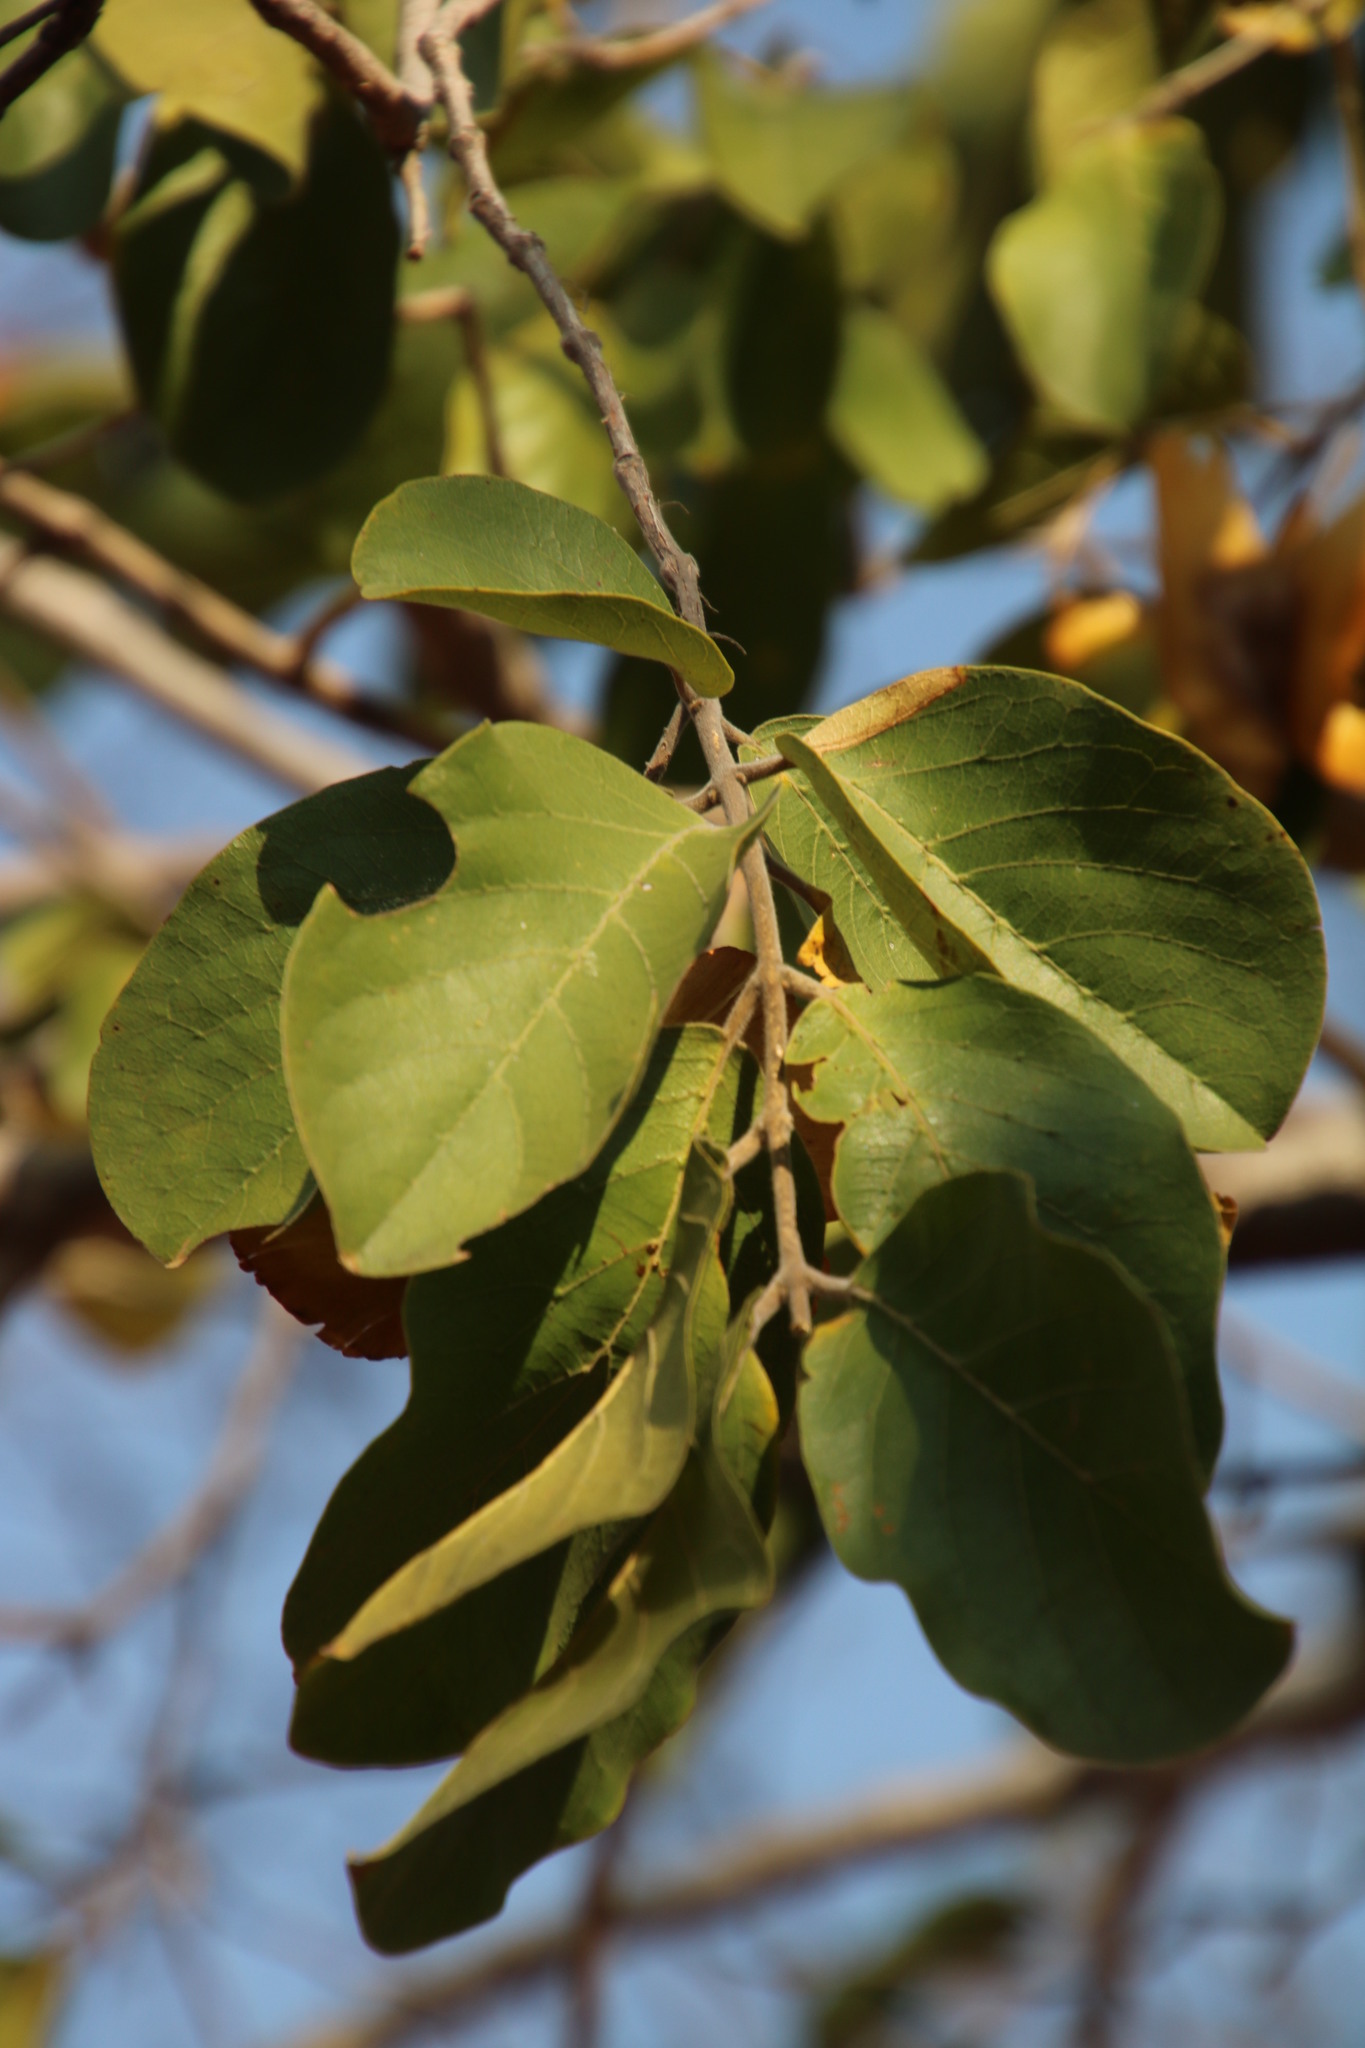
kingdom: Plantae
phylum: Tracheophyta
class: Magnoliopsida
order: Myrtales
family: Combretaceae
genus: Combretum
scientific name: Combretum zeyheri
